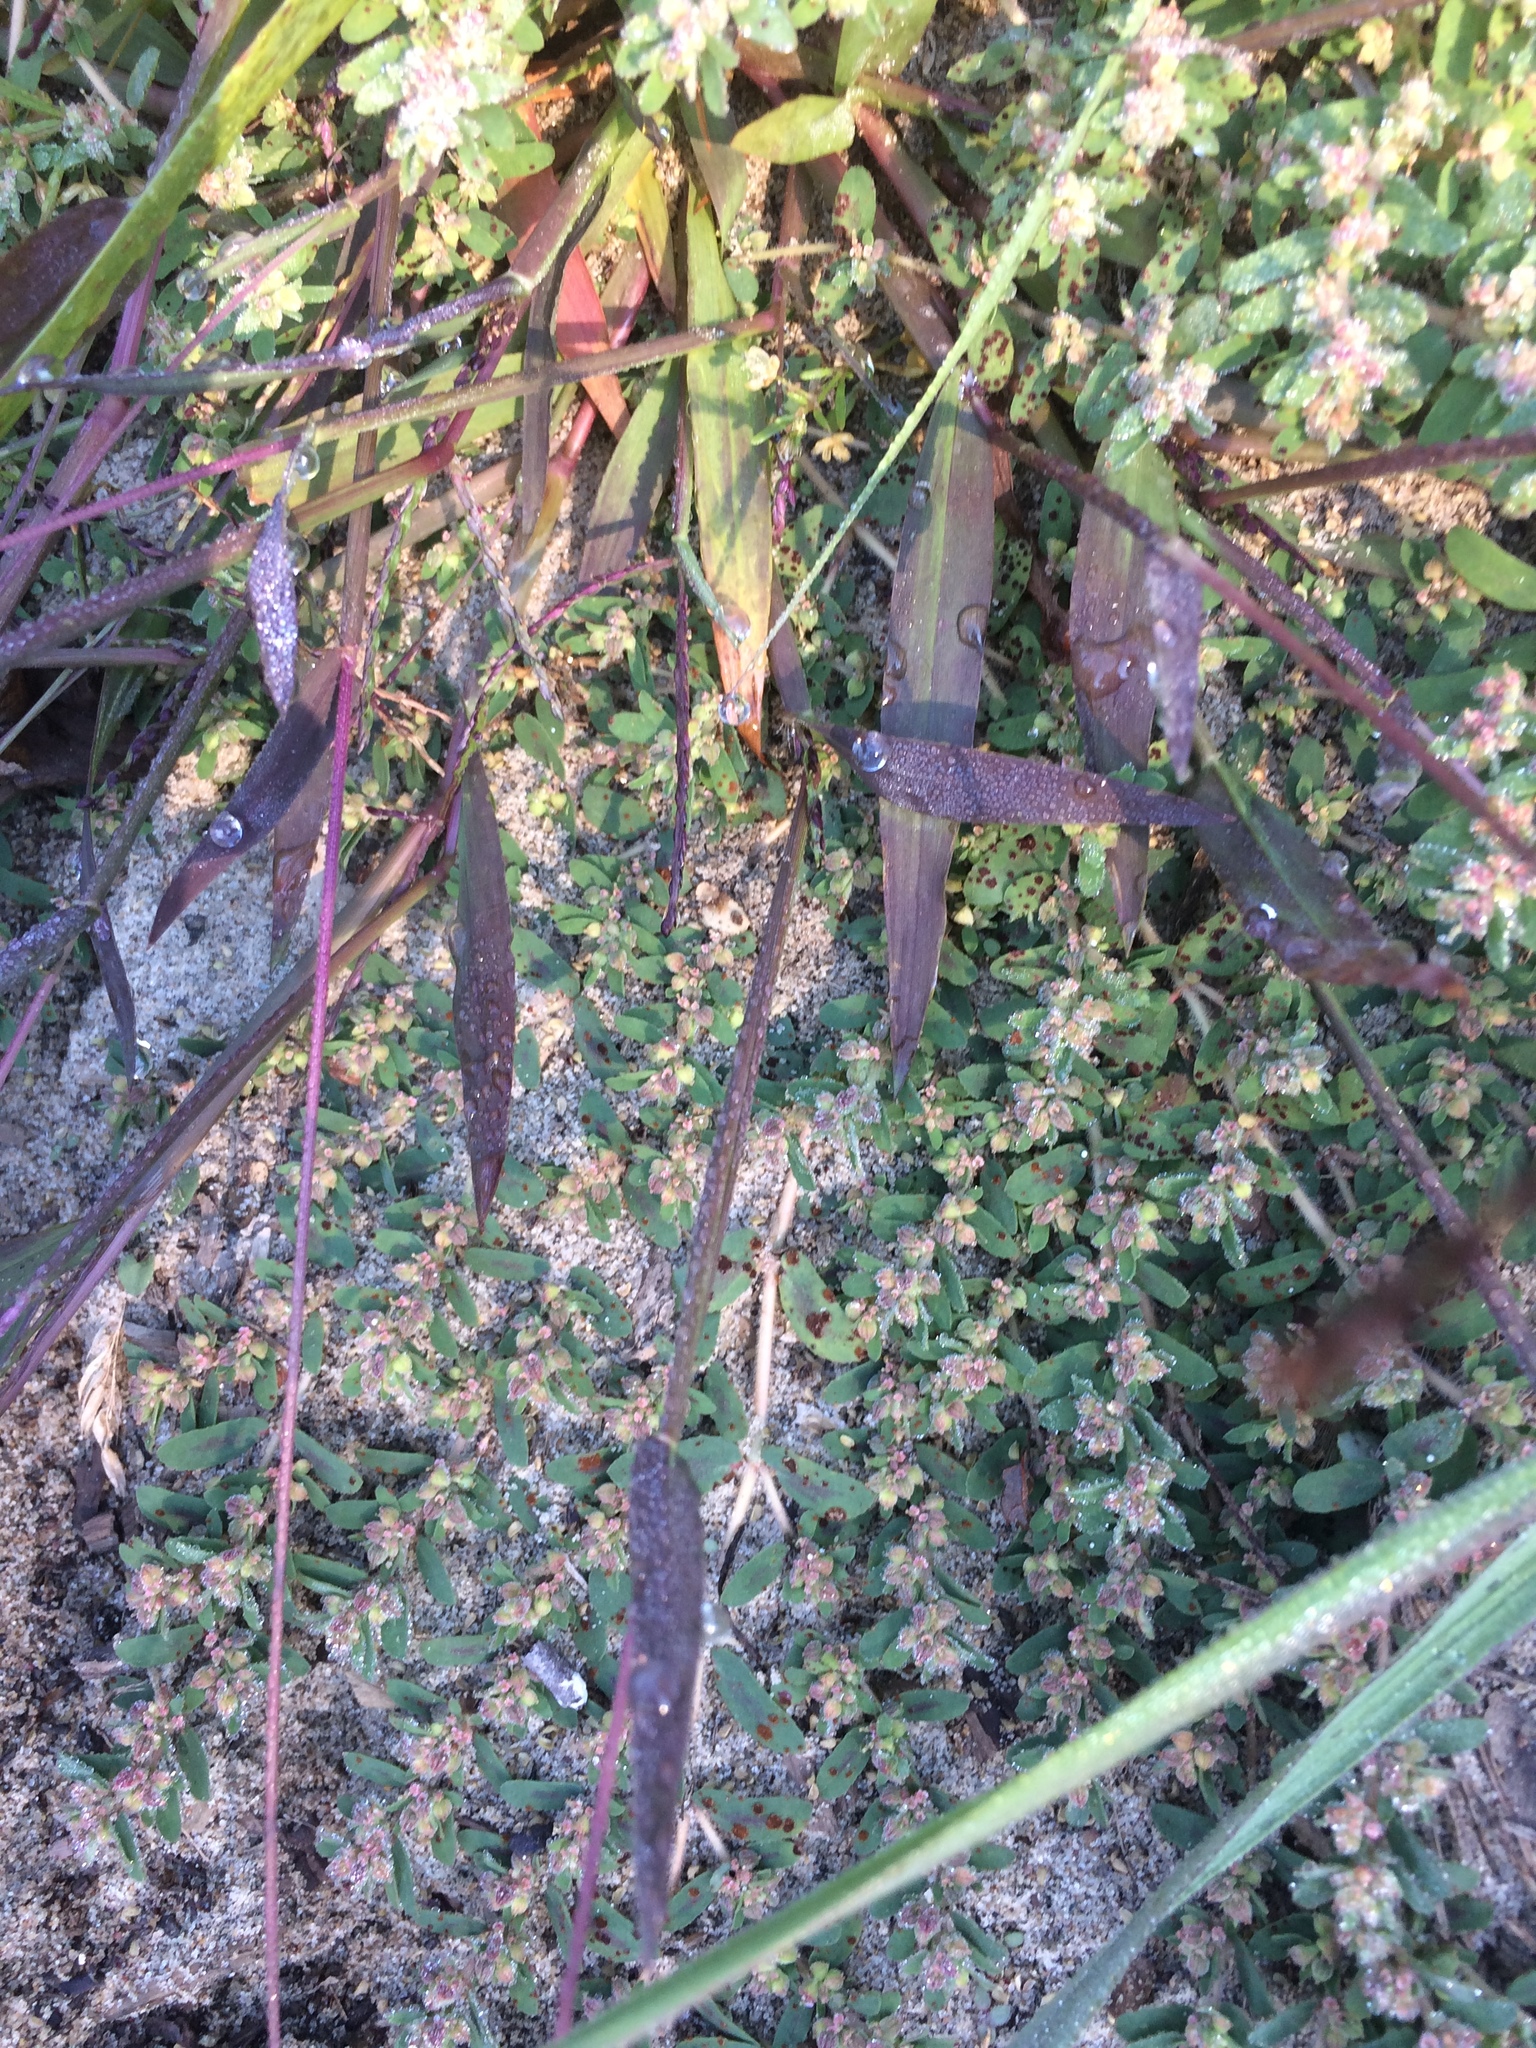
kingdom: Plantae
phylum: Tracheophyta
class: Magnoliopsida
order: Malpighiales
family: Euphorbiaceae
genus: Euphorbia
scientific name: Euphorbia maculata
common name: Spotted spurge
